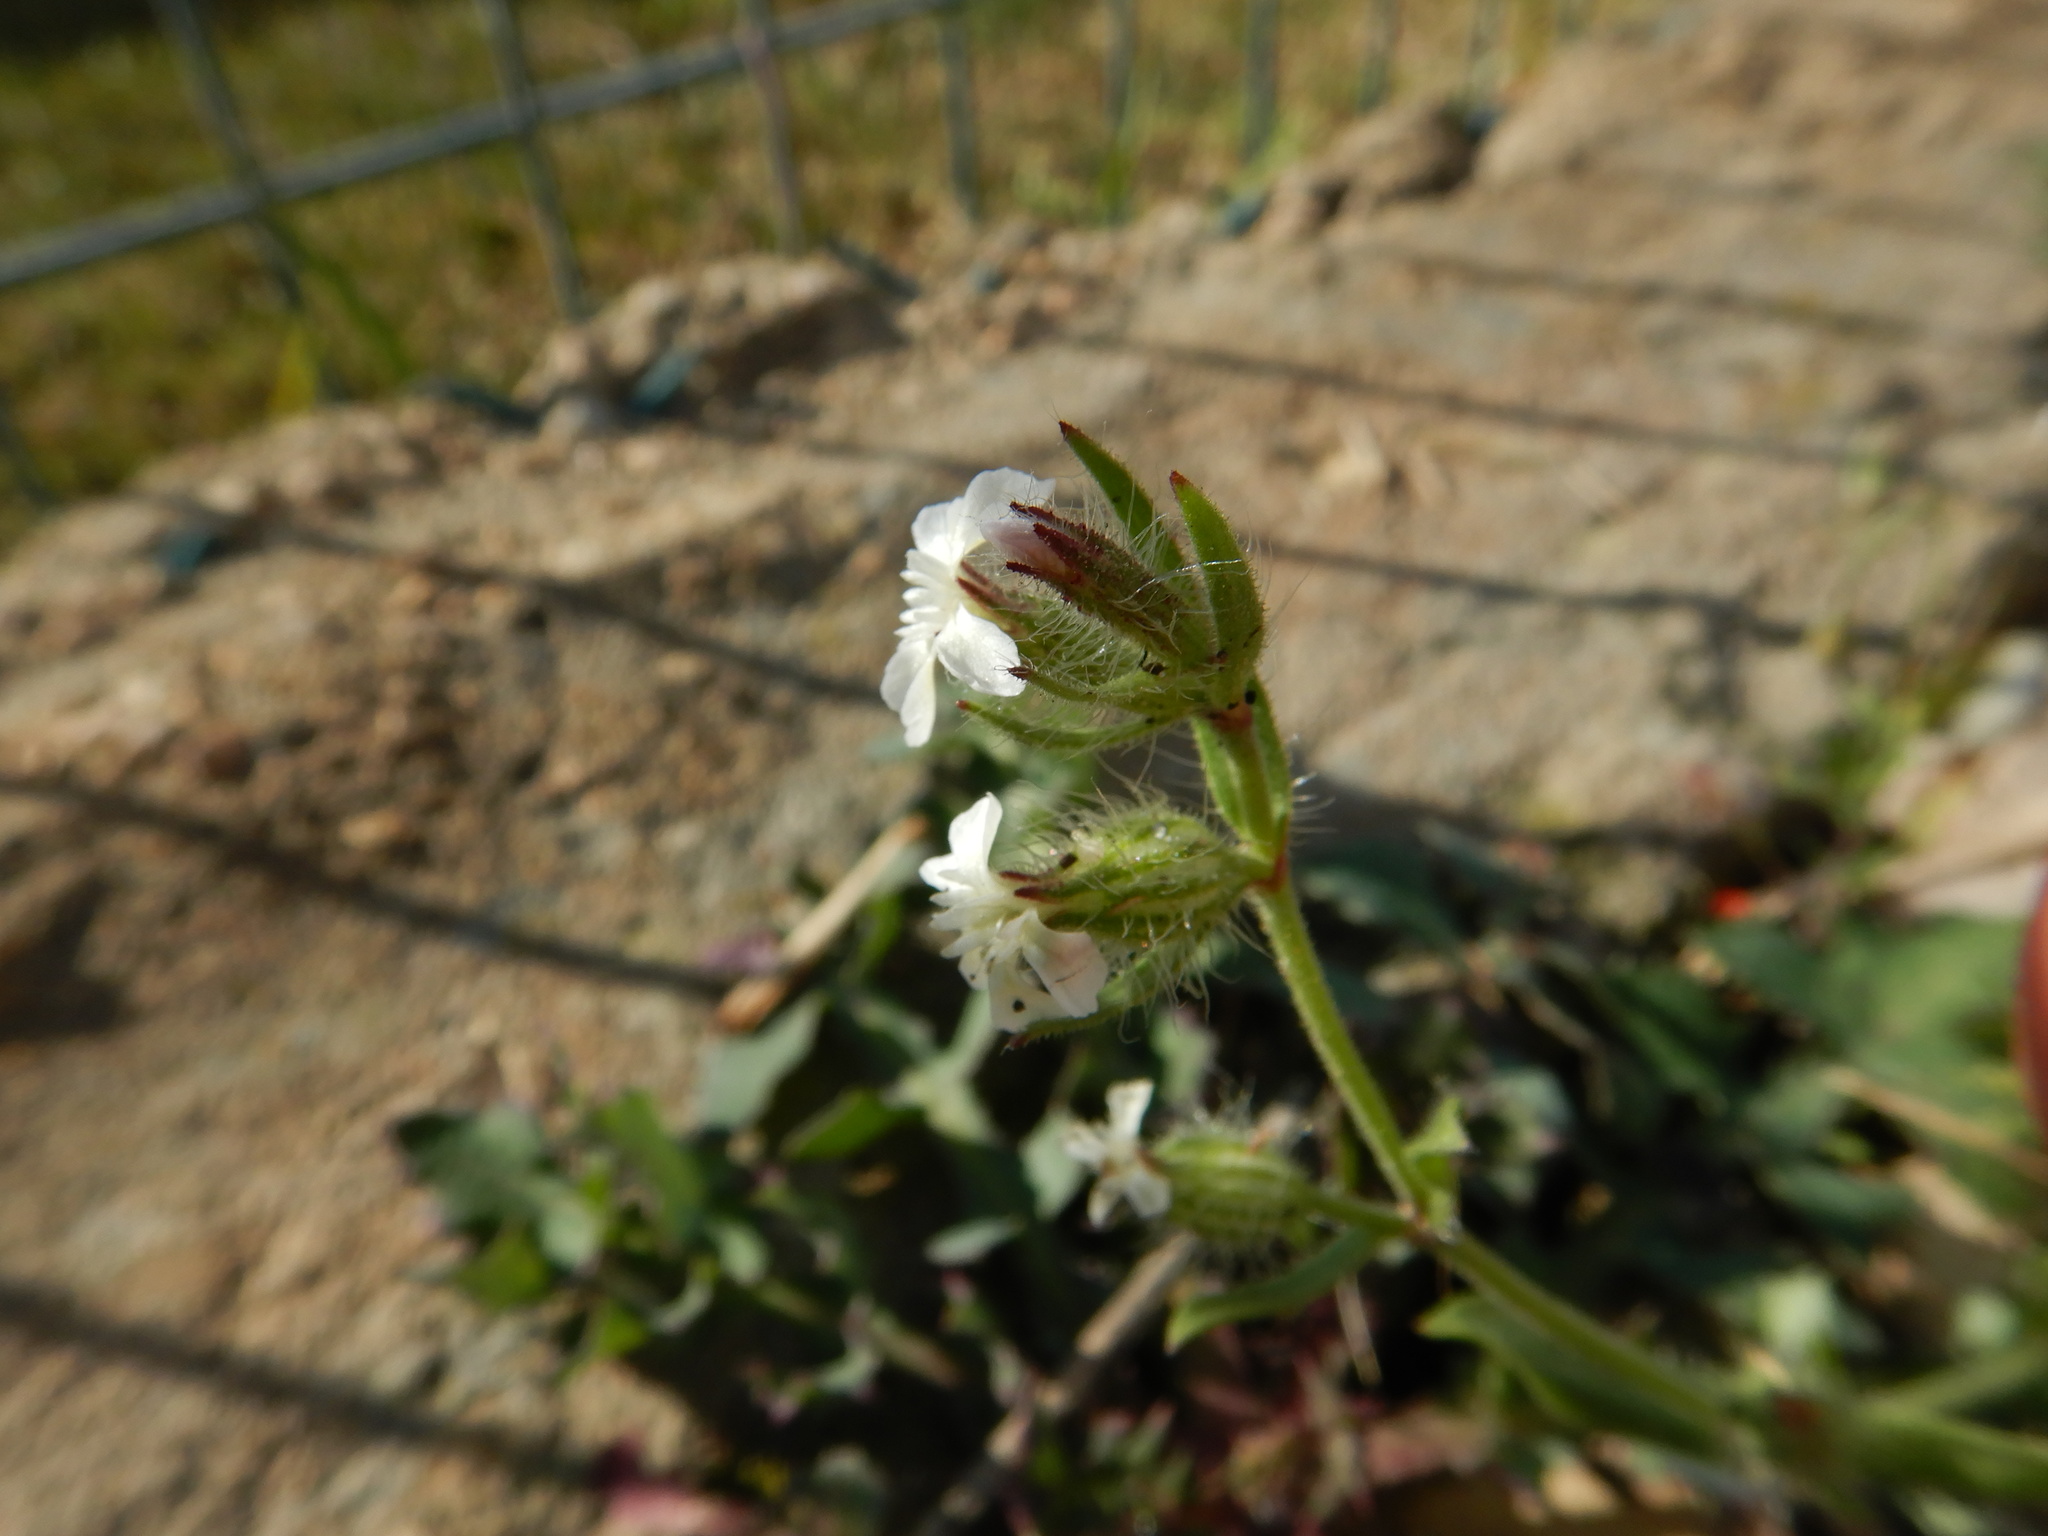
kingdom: Plantae
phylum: Tracheophyta
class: Magnoliopsida
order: Caryophyllales
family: Caryophyllaceae
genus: Silene
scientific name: Silene gallica
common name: Small-flowered catchfly
